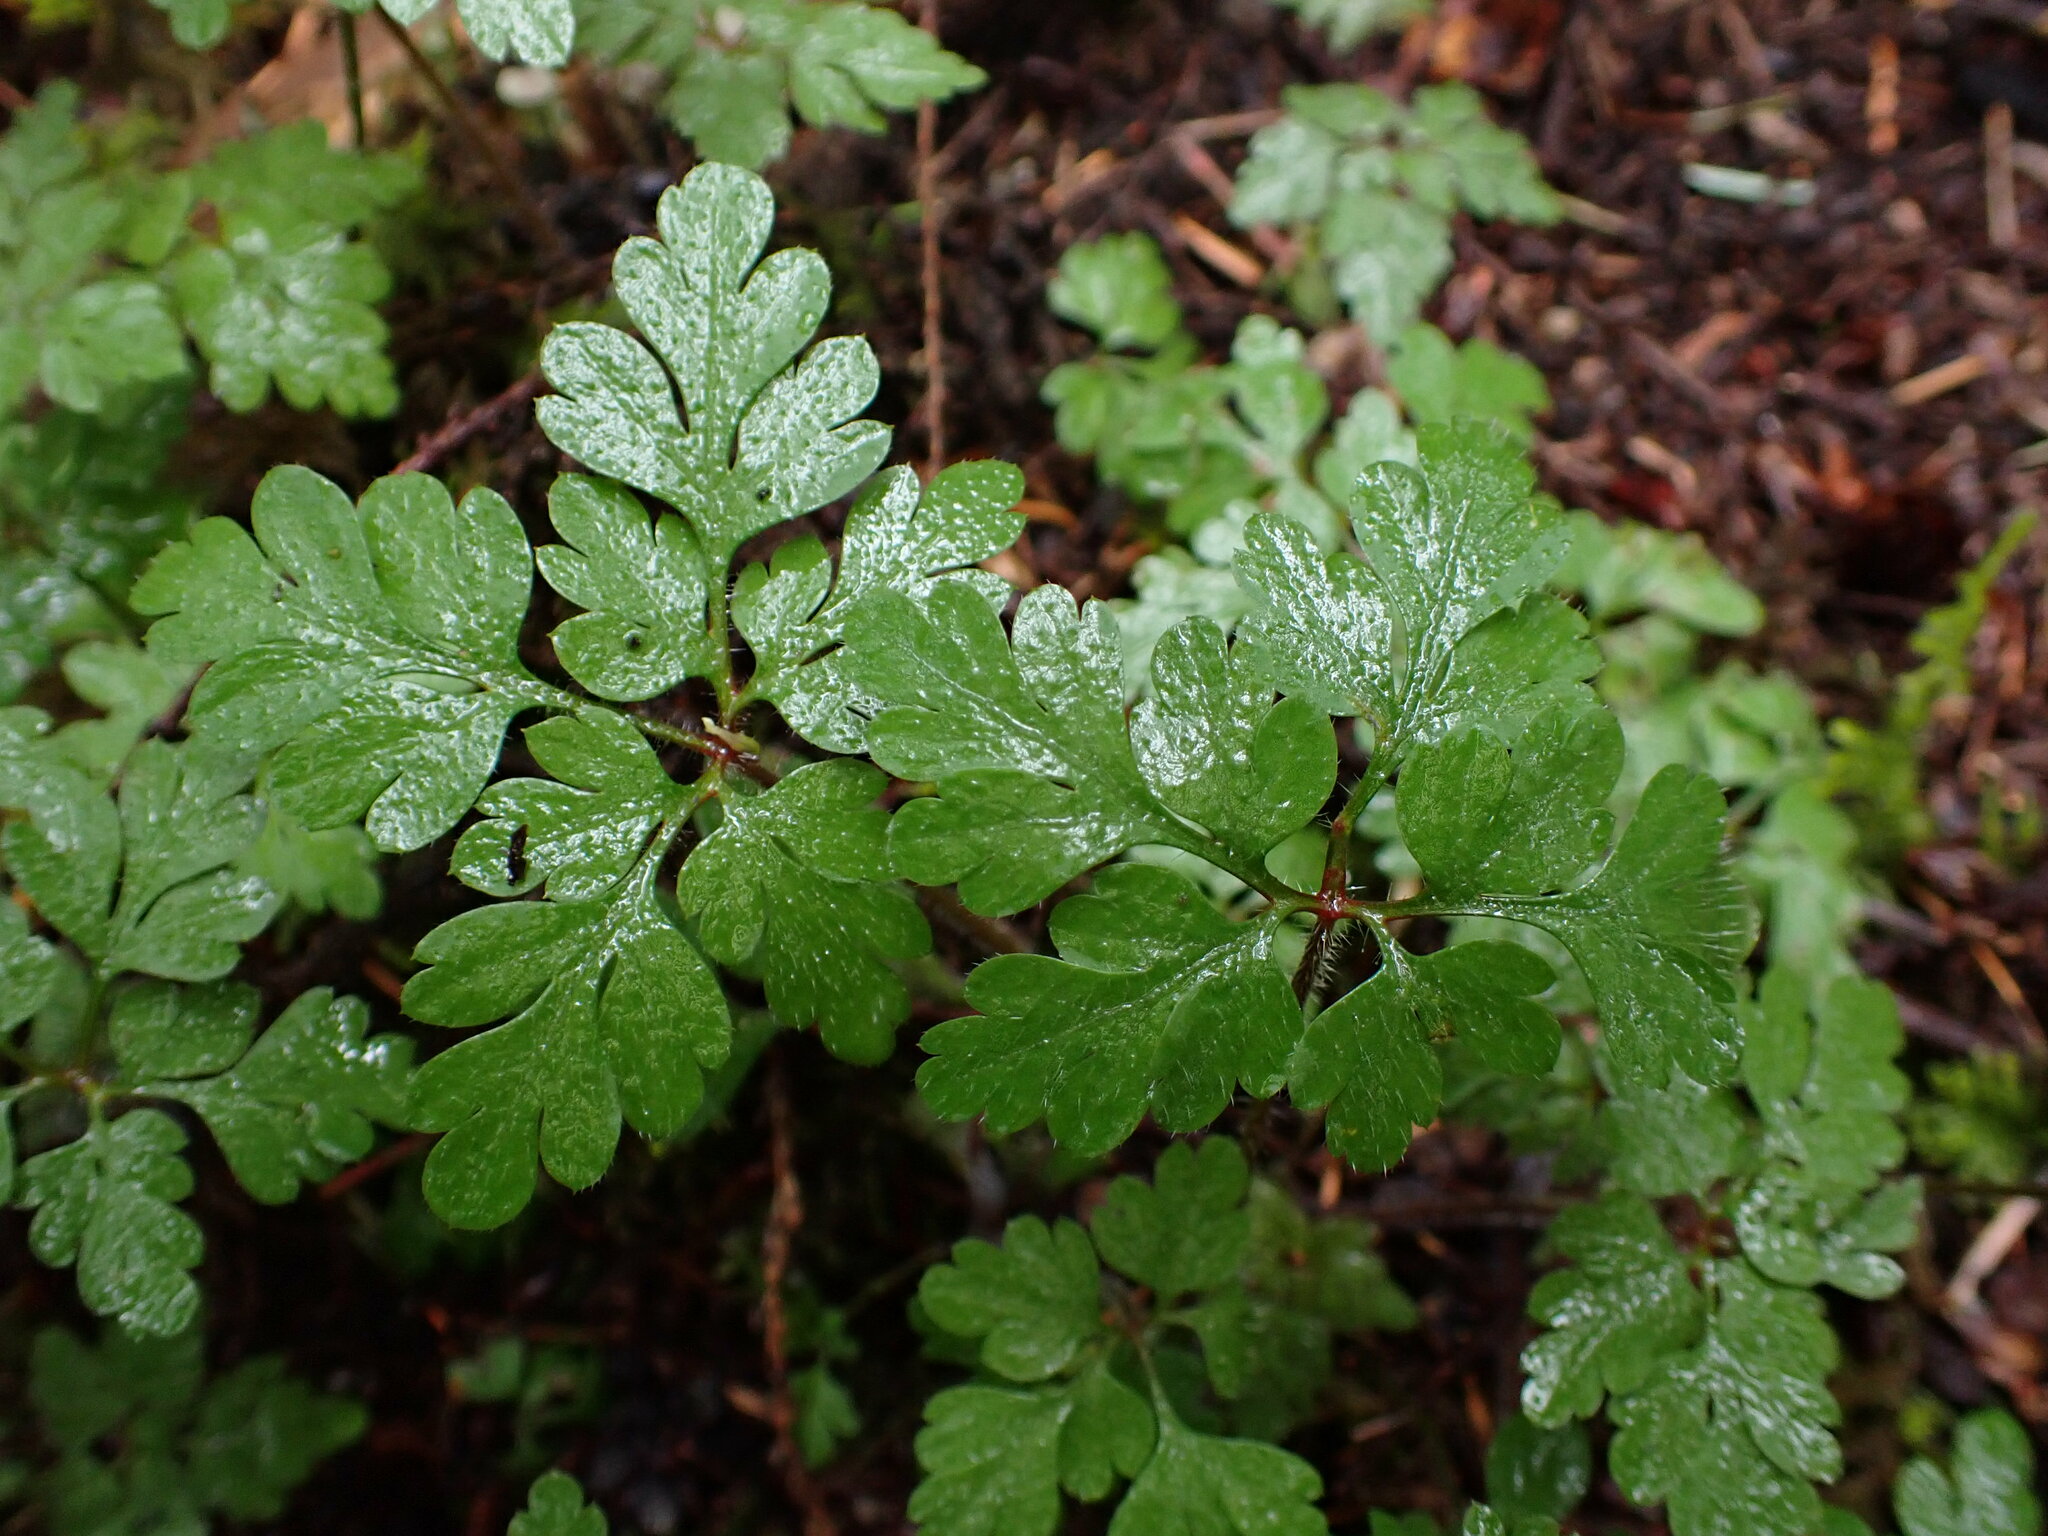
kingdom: Plantae
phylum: Tracheophyta
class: Magnoliopsida
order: Geraniales
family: Geraniaceae
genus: Geranium
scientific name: Geranium robertianum
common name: Herb-robert
